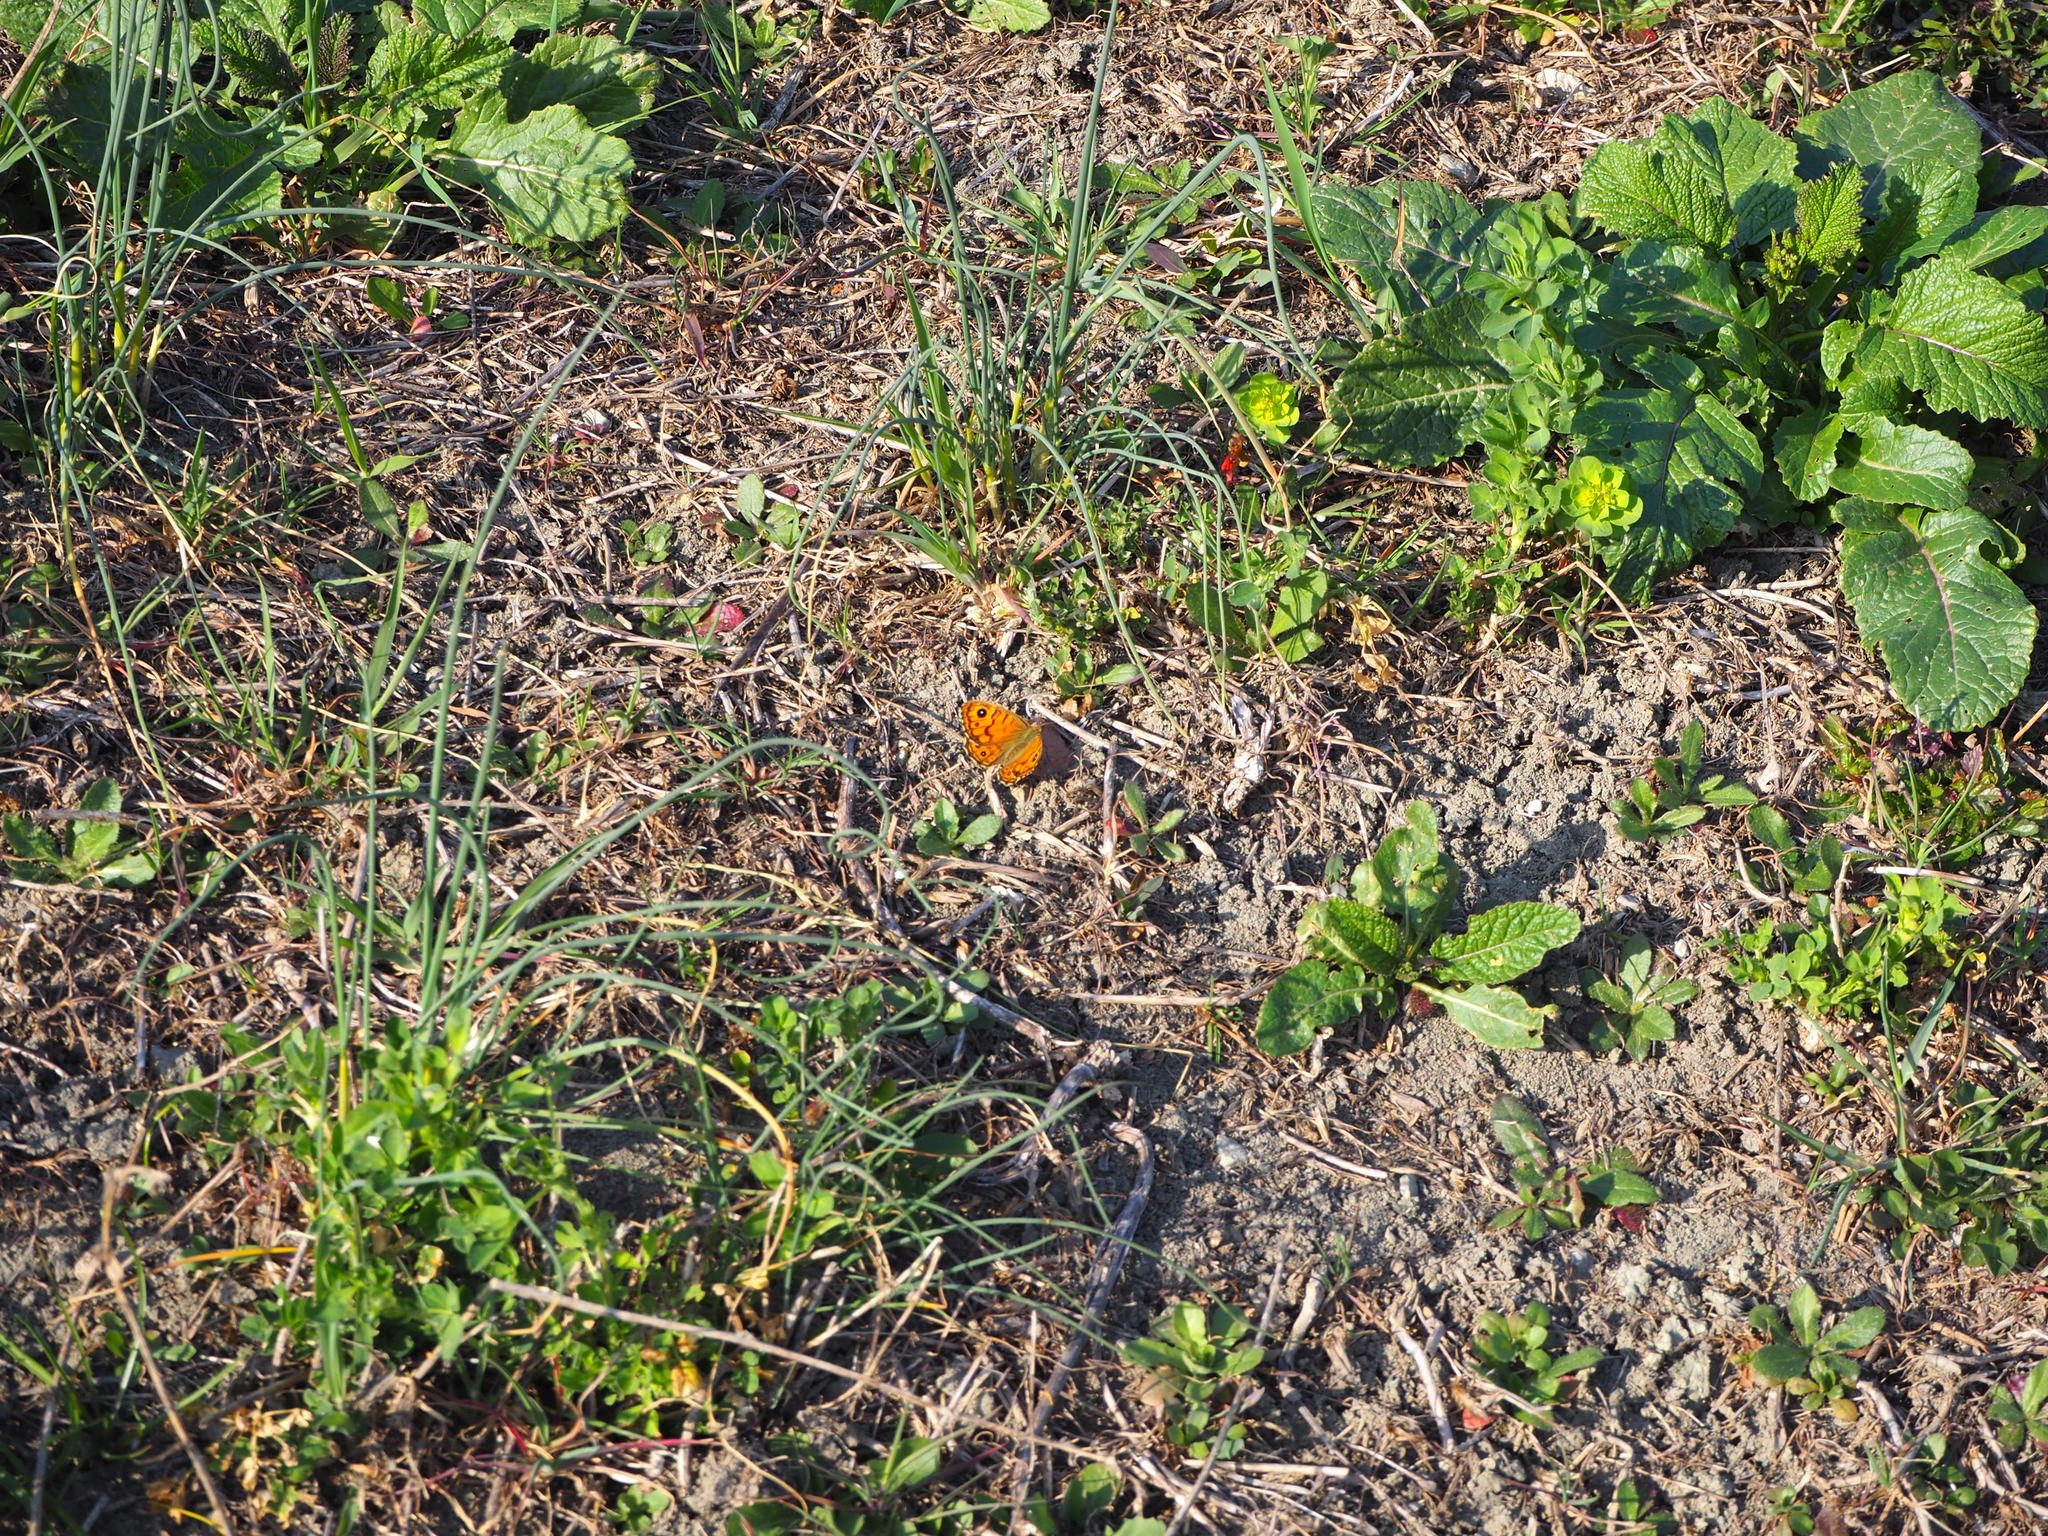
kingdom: Animalia
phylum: Arthropoda
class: Insecta
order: Lepidoptera
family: Nymphalidae
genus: Pararge
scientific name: Pararge Lasiommata megera
